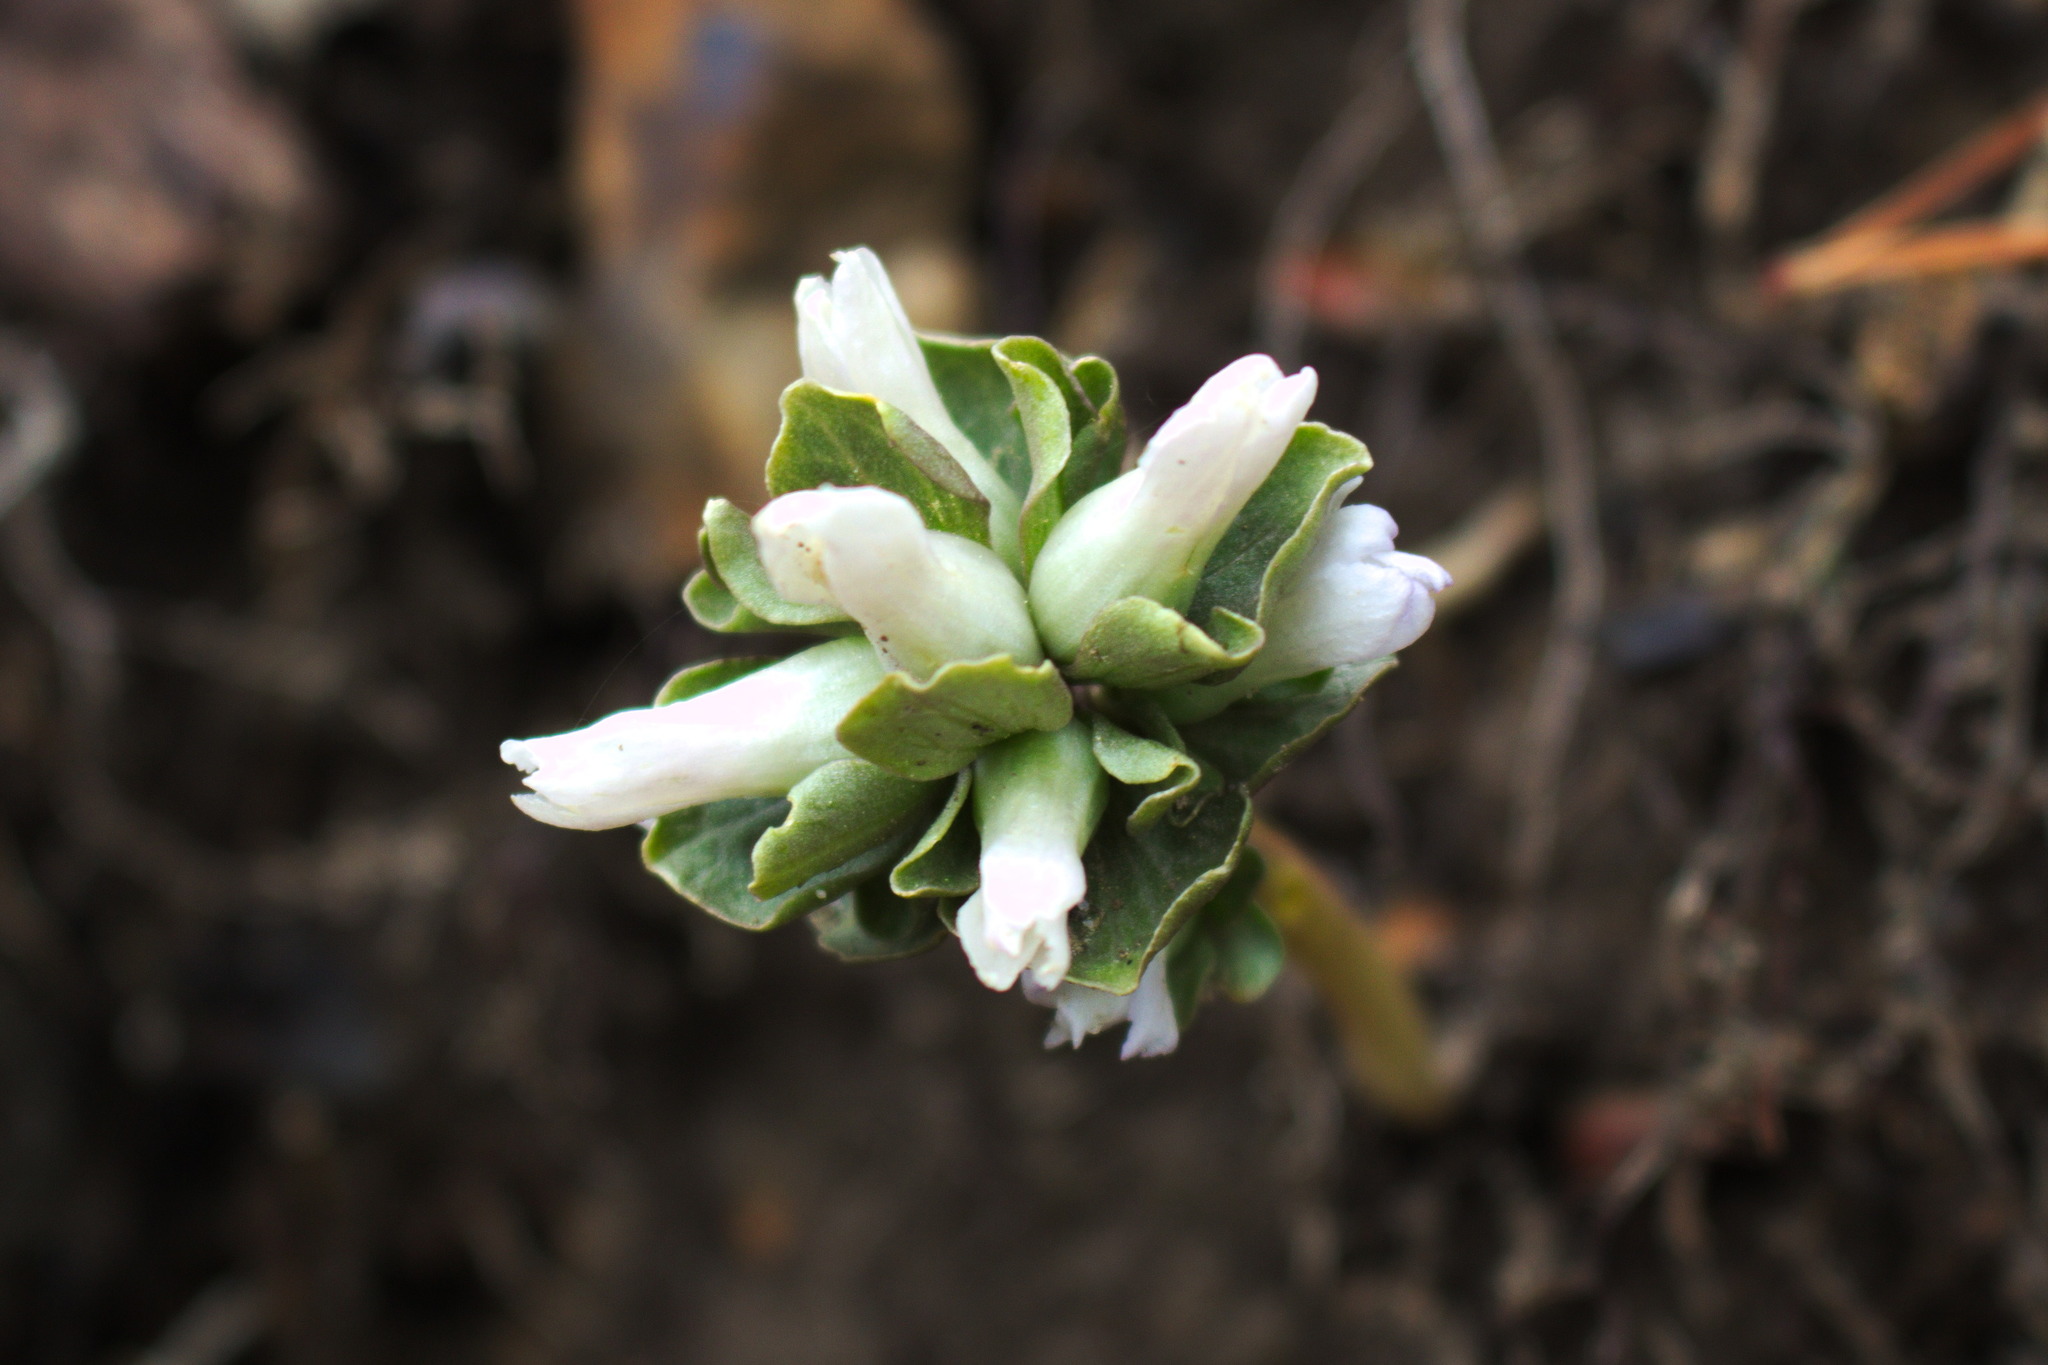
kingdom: Plantae
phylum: Tracheophyta
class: Magnoliopsida
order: Gentianales
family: Gentianaceae
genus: Obolaria
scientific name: Obolaria virginica
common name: Pennywort
